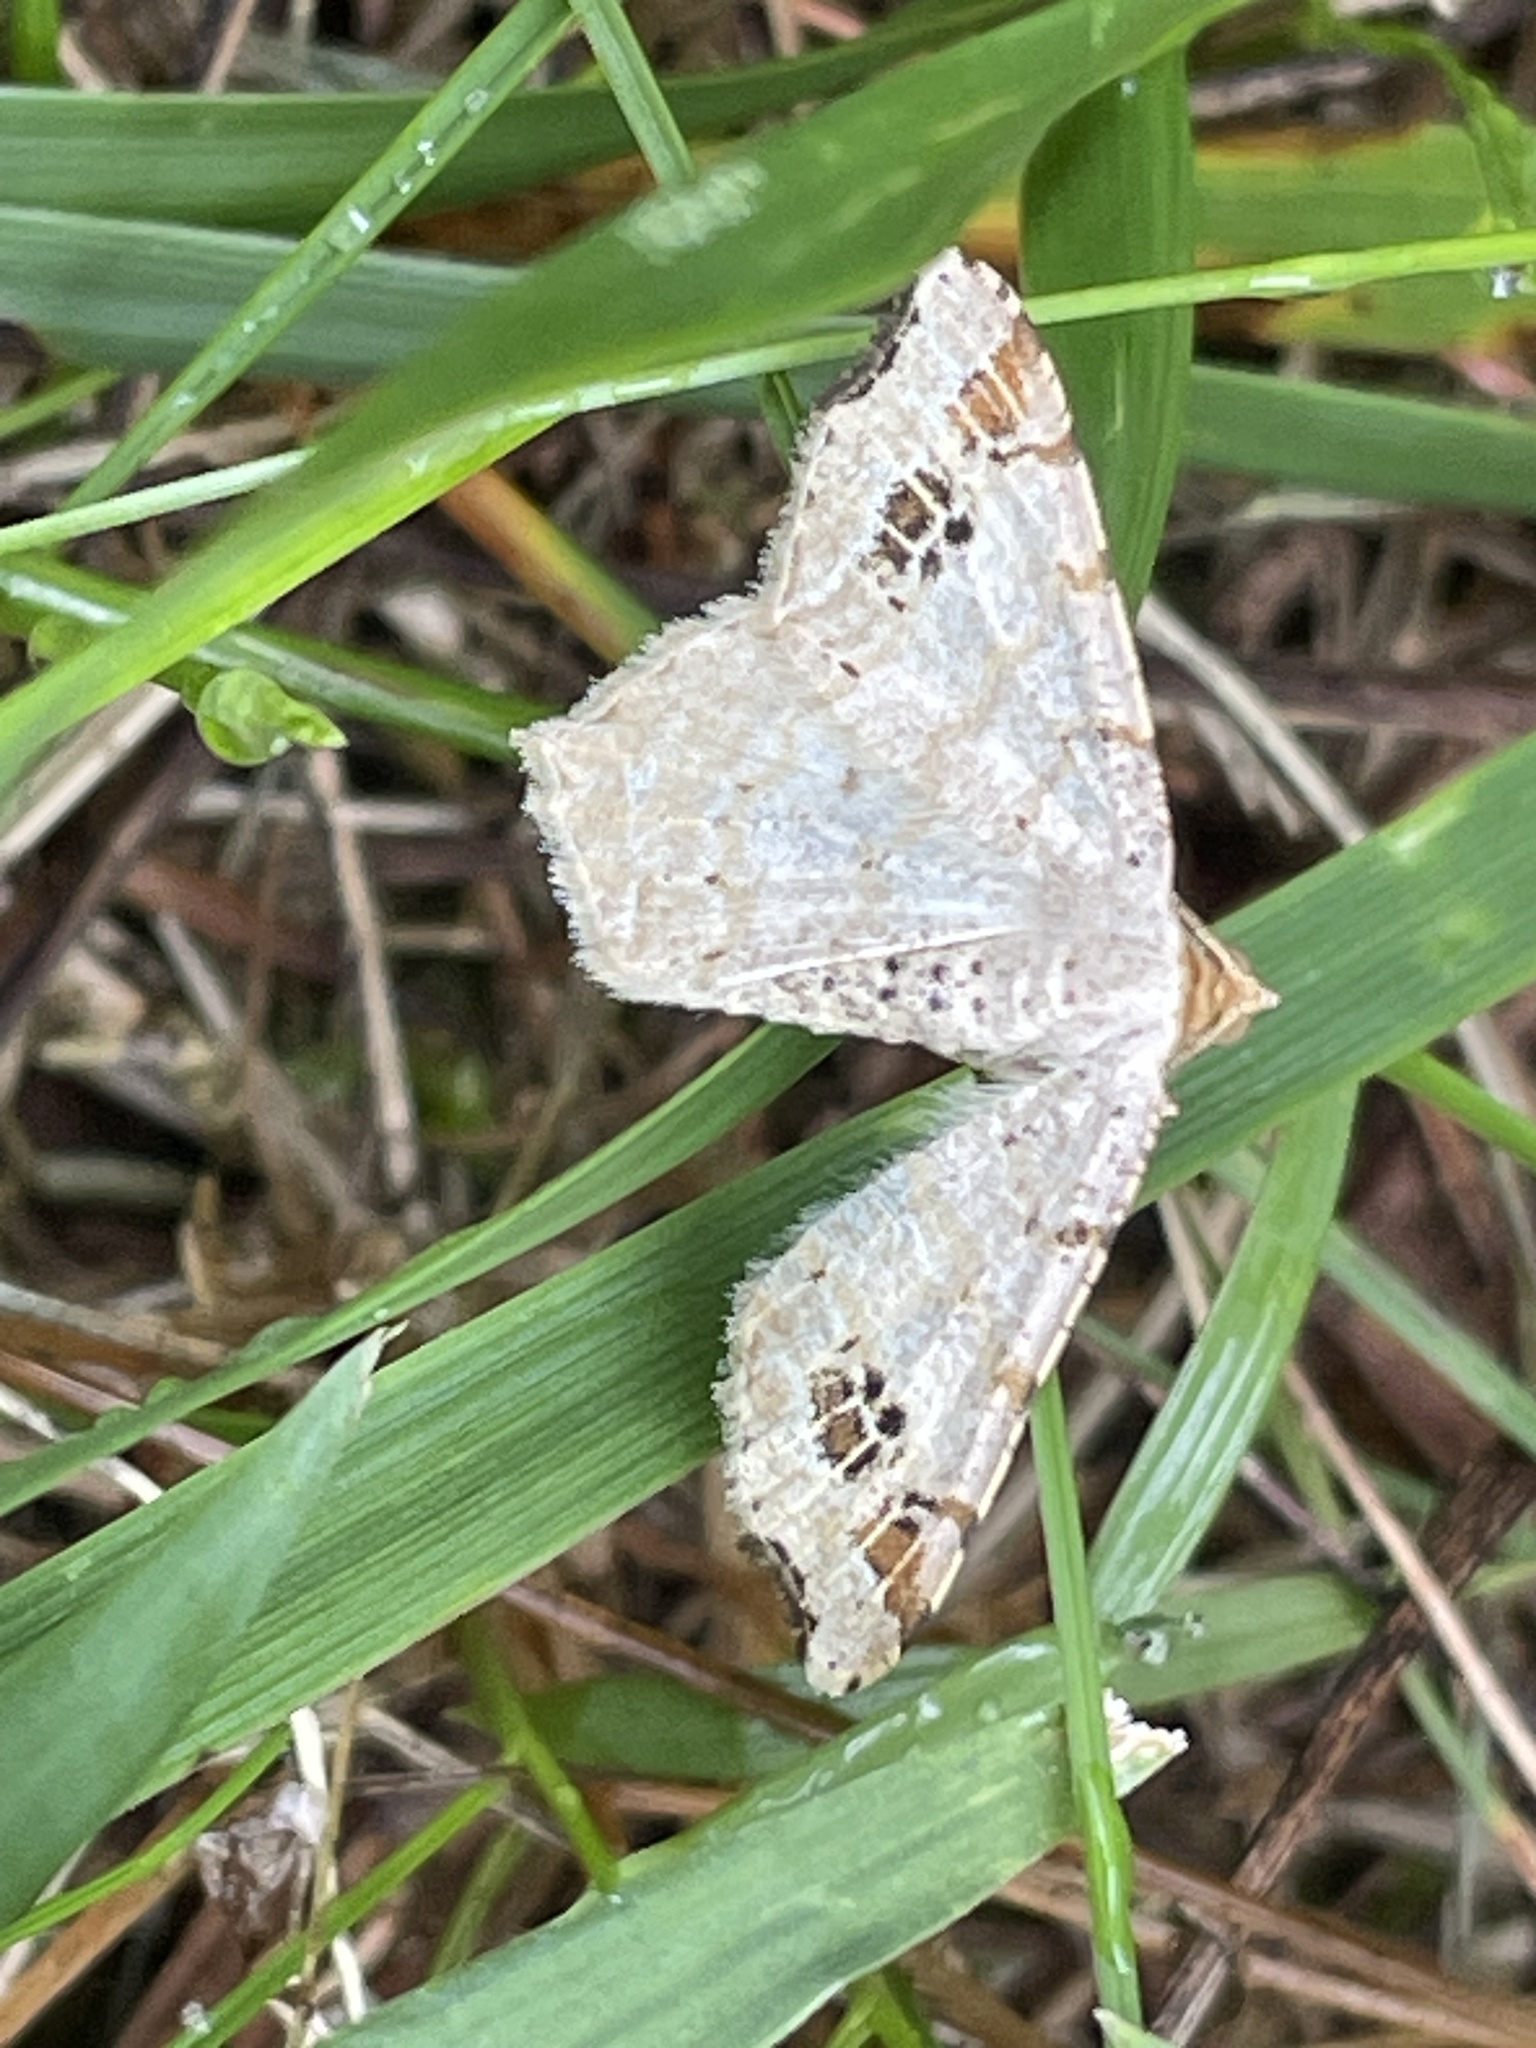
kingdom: Animalia
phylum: Arthropoda
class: Insecta
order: Lepidoptera
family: Geometridae
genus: Macaria
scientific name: Macaria aemulataria
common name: Common angle
